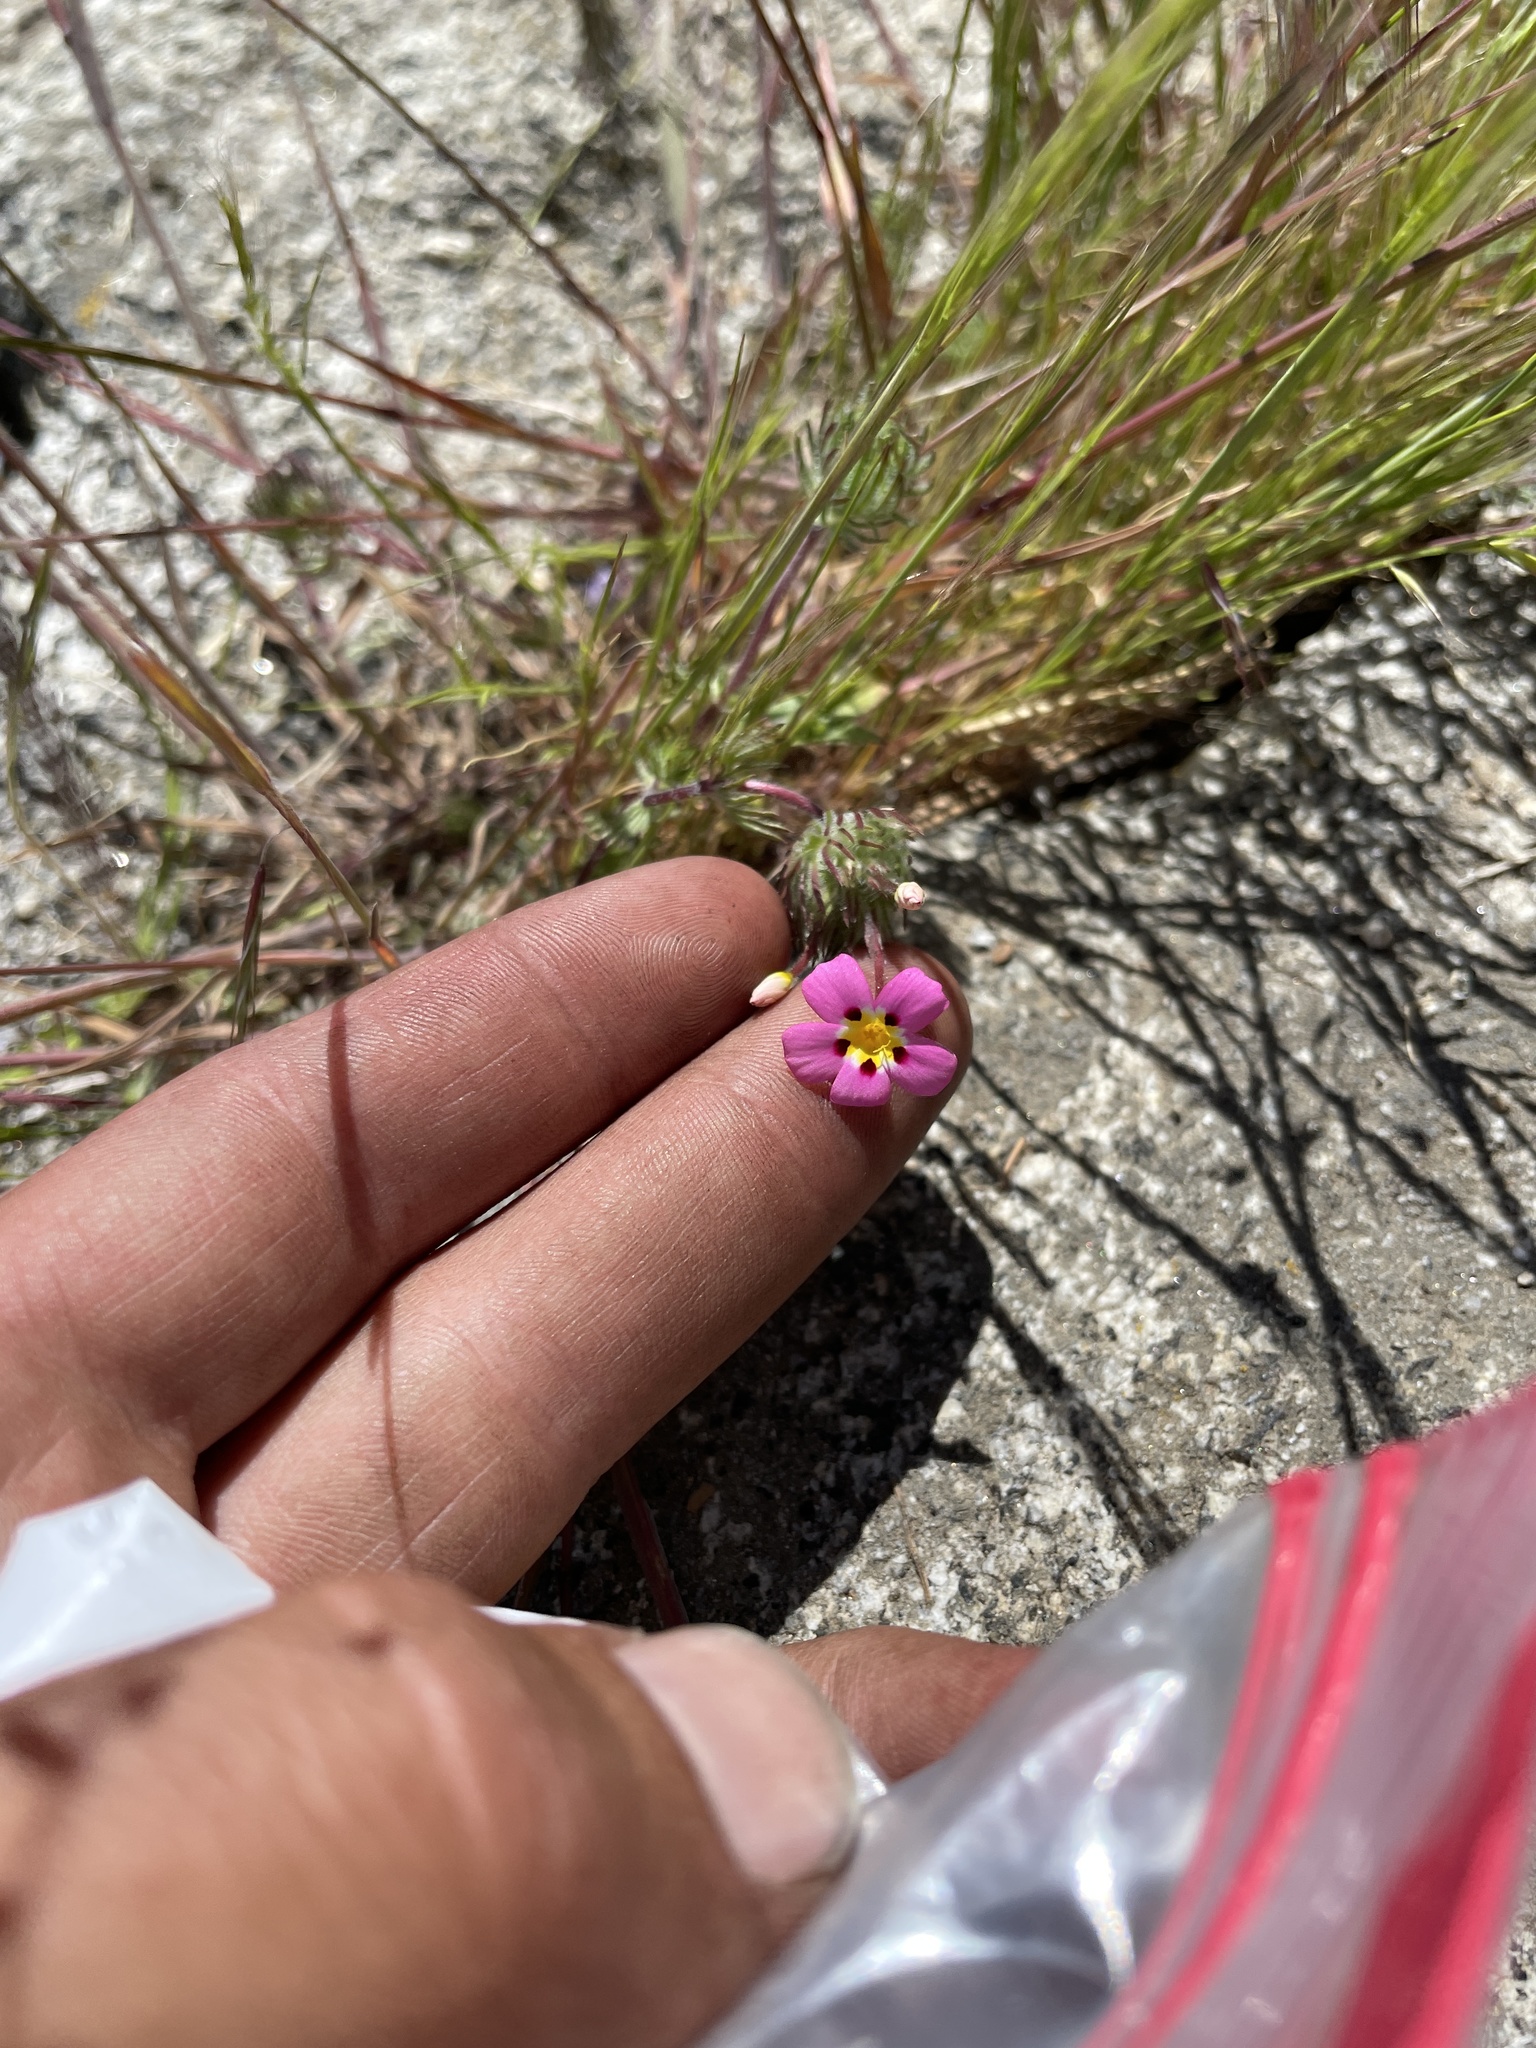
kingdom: Plantae
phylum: Tracheophyta
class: Magnoliopsida
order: Ericales
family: Polemoniaceae
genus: Leptosiphon
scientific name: Leptosiphon ciliatus
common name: Whiskerbrush
